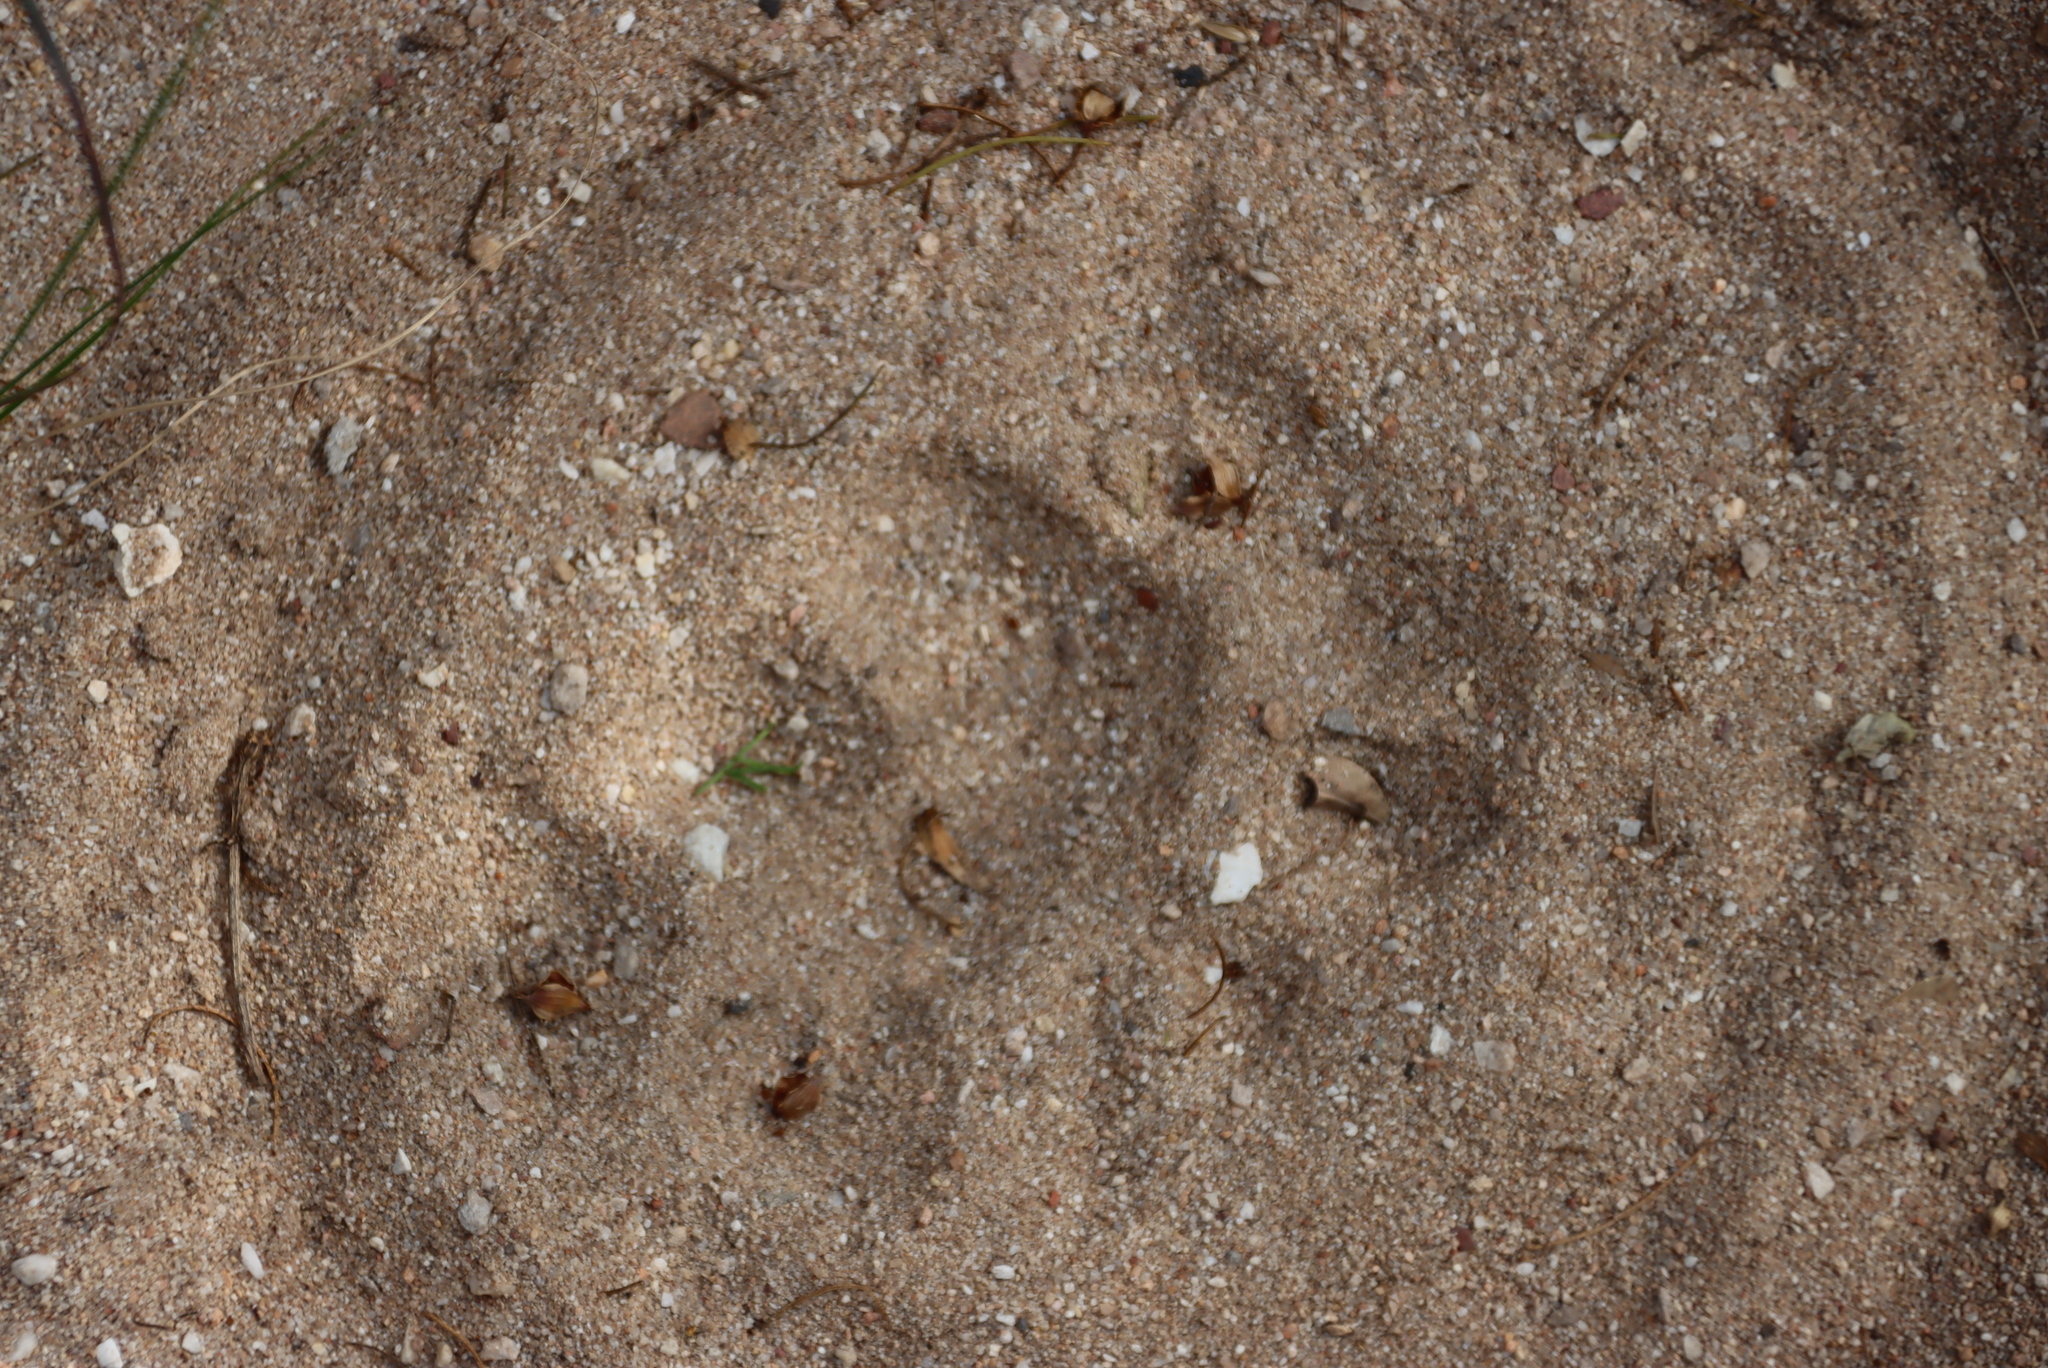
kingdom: Animalia
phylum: Chordata
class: Mammalia
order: Carnivora
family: Felidae
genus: Panthera
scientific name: Panthera pardus
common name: Leopard
